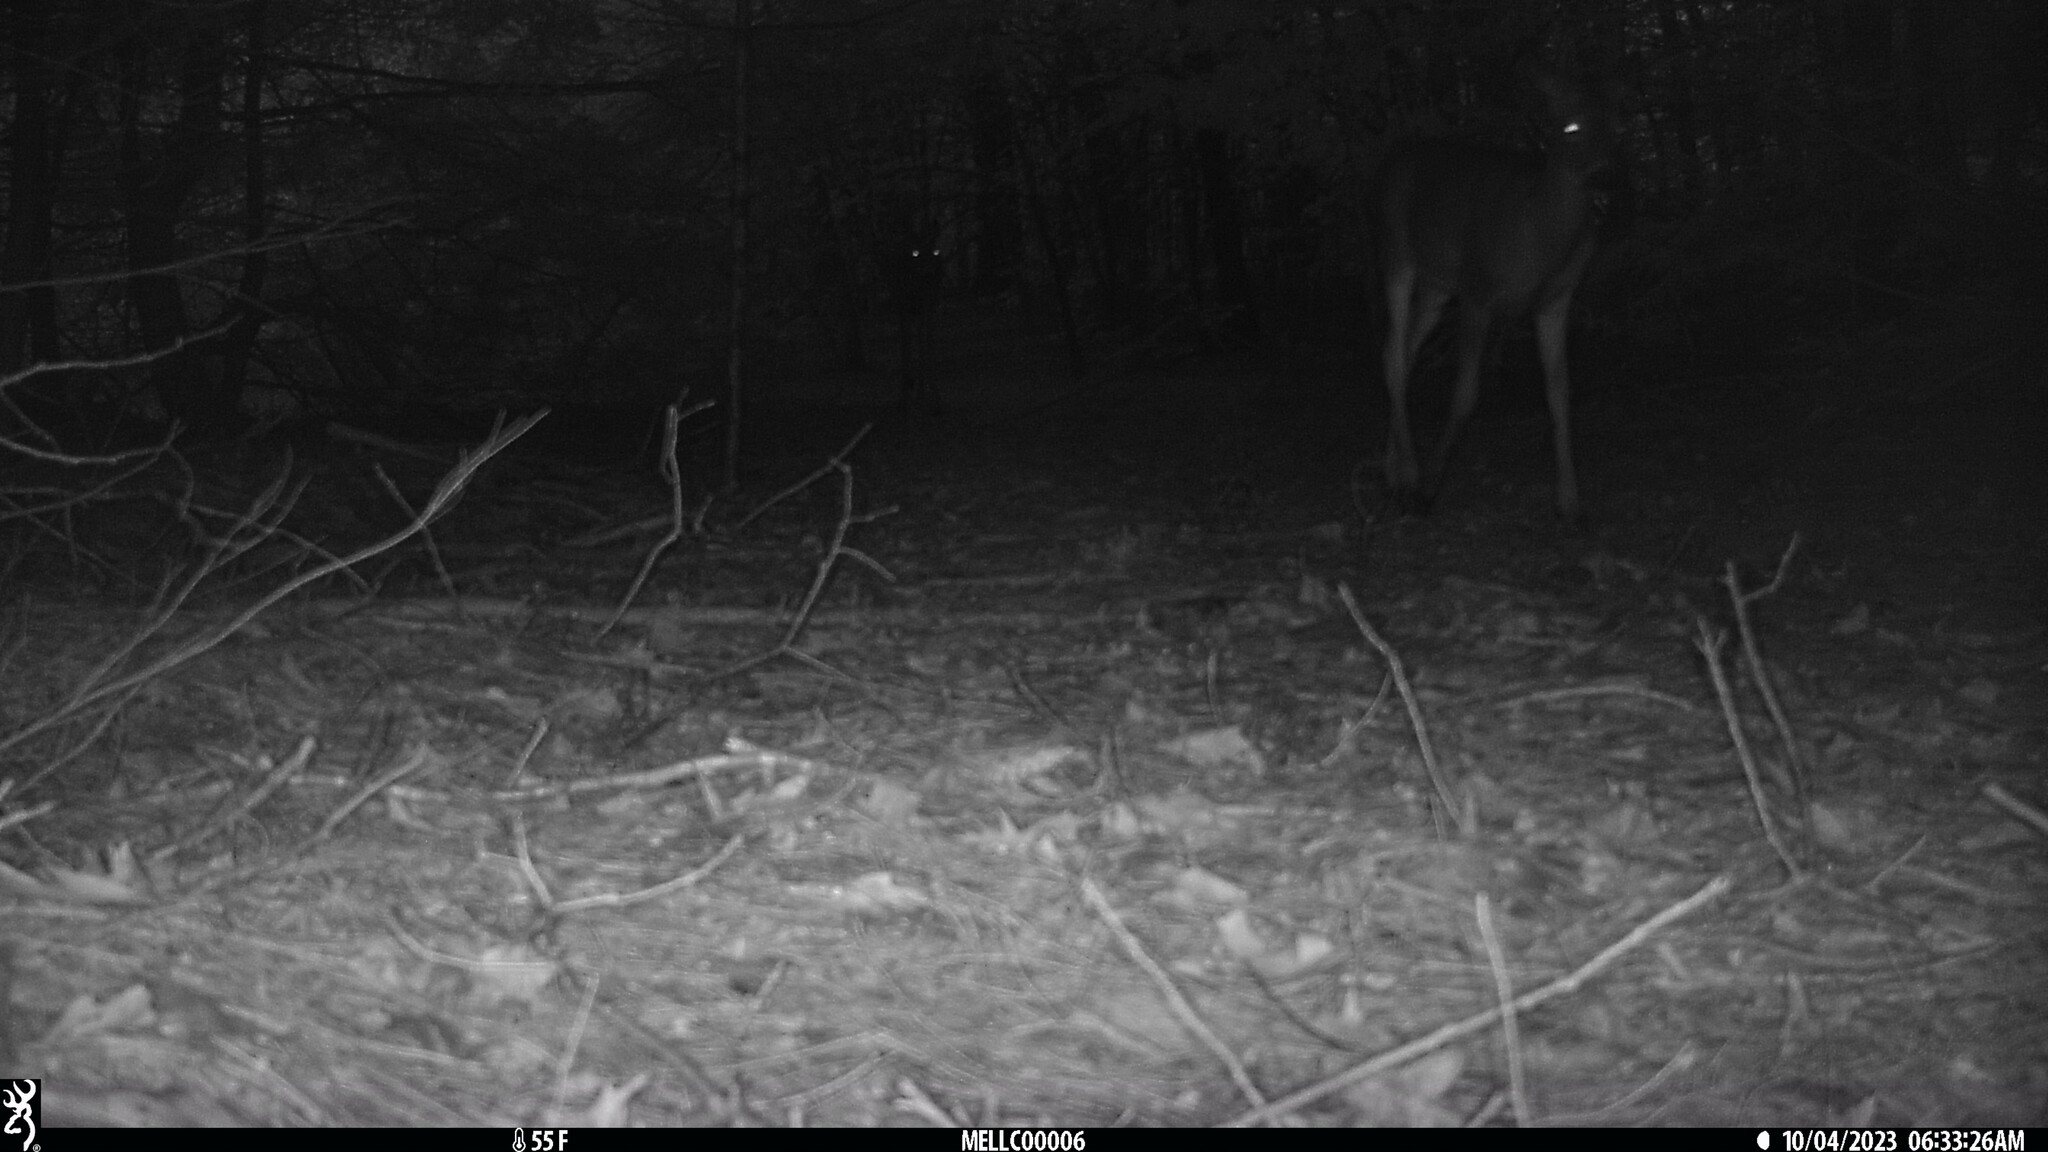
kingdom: Animalia
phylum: Chordata
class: Mammalia
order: Artiodactyla
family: Cervidae
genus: Odocoileus
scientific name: Odocoileus virginianus
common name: White-tailed deer
